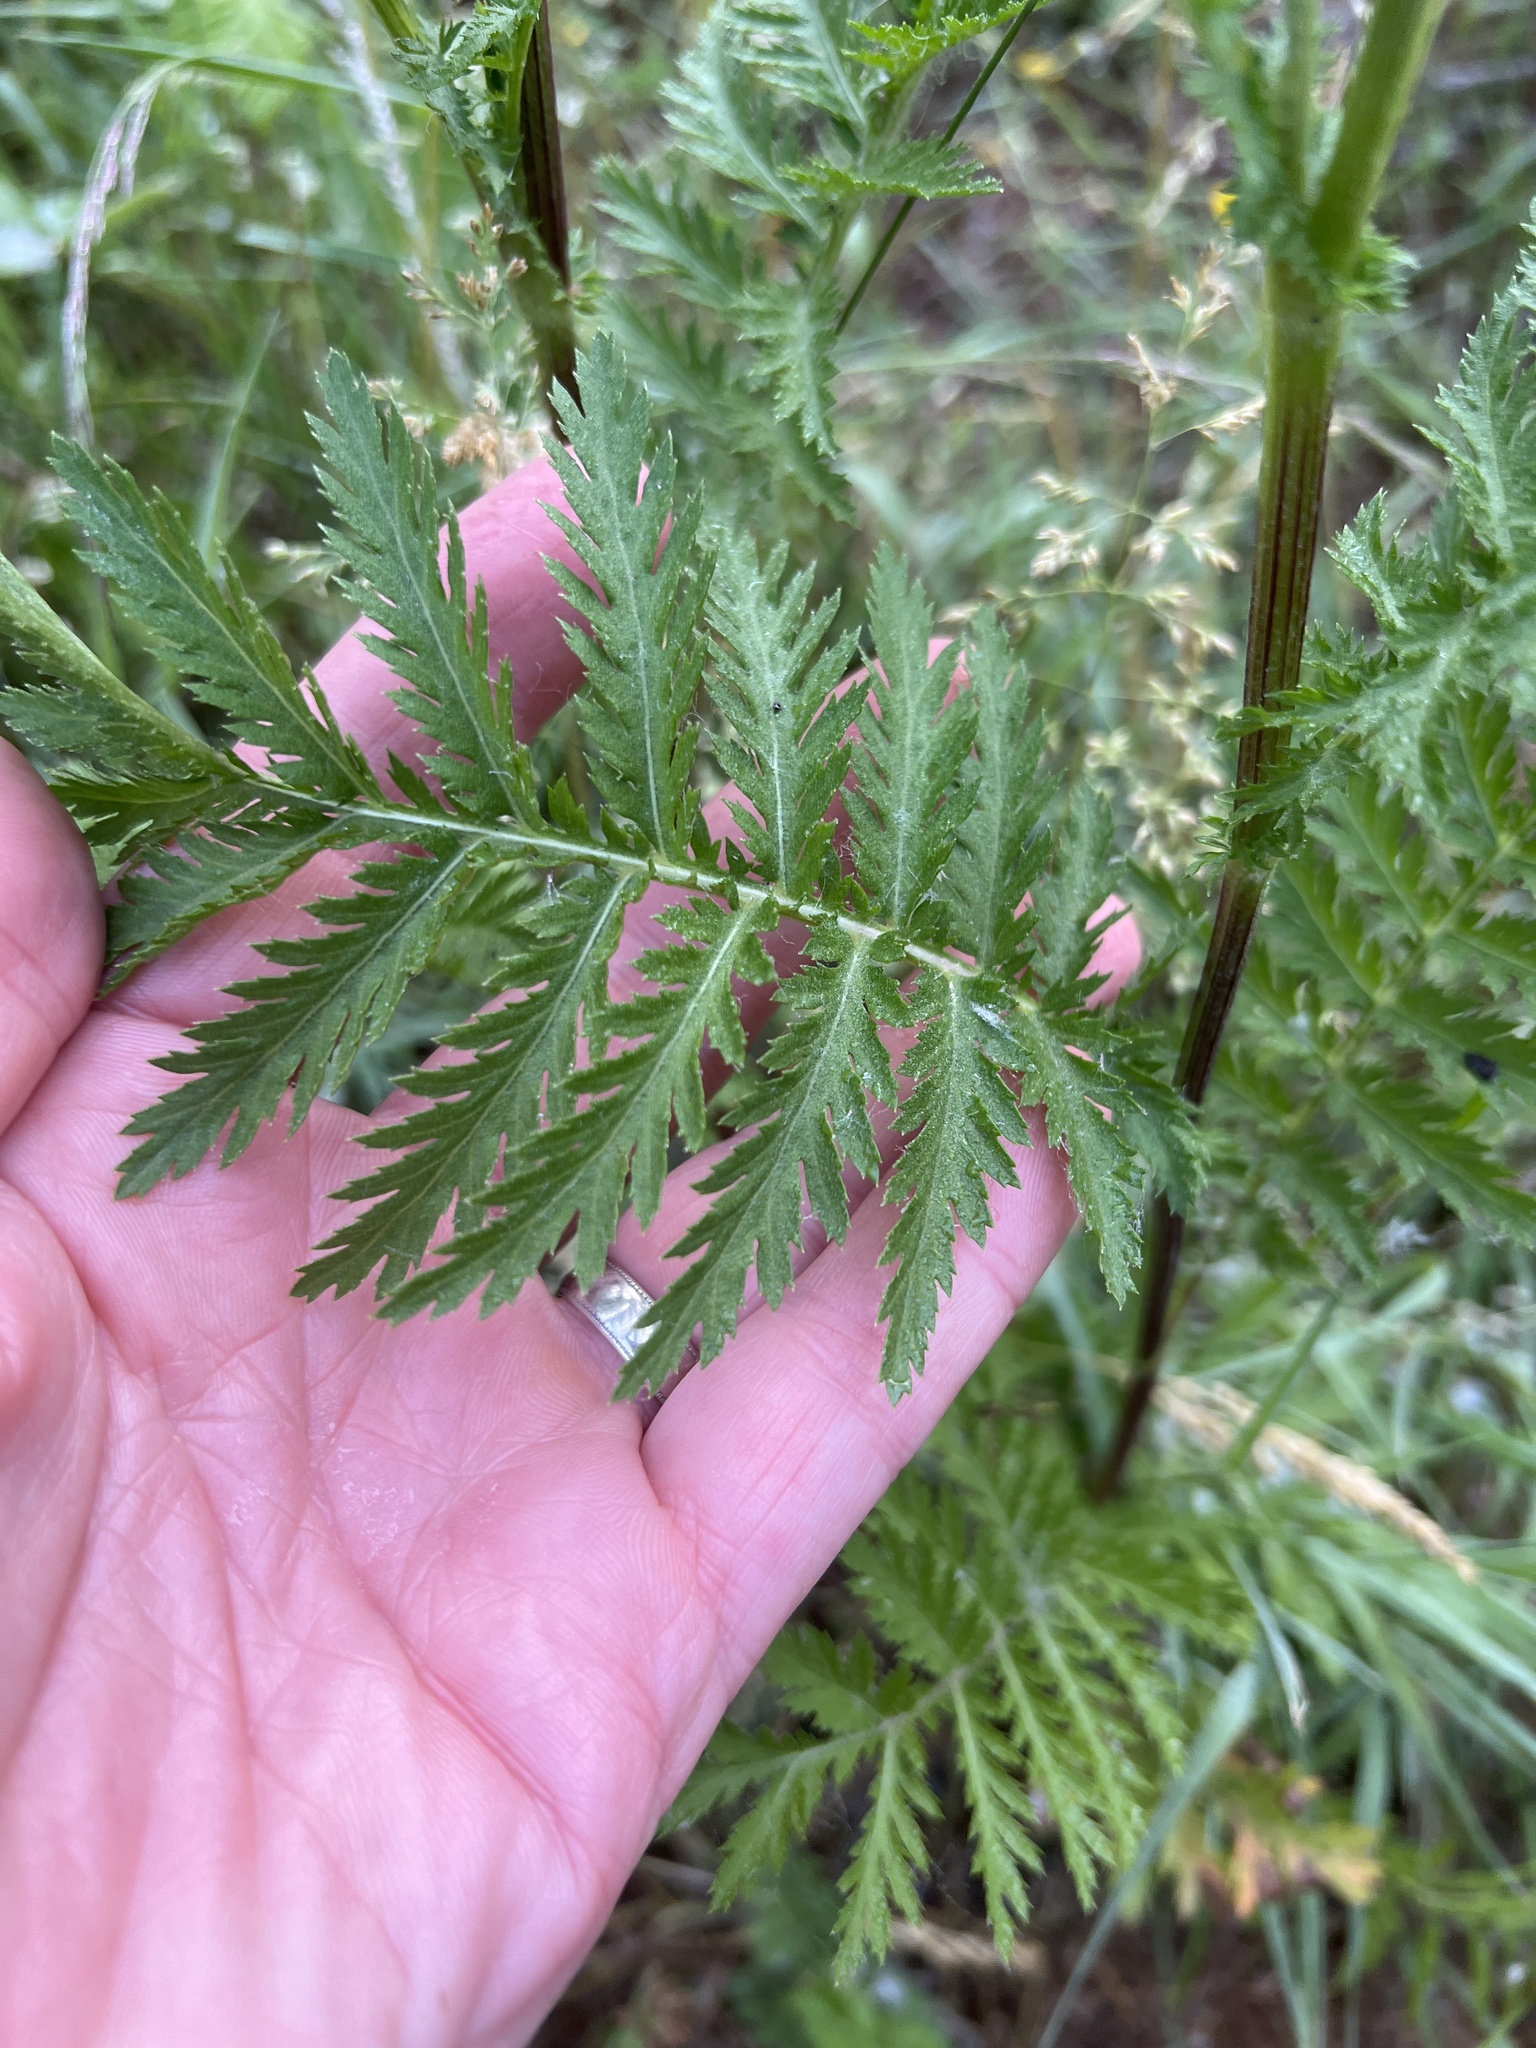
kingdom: Plantae
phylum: Tracheophyta
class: Magnoliopsida
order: Asterales
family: Asteraceae
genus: Tanacetum
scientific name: Tanacetum vulgare
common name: Common tansy
